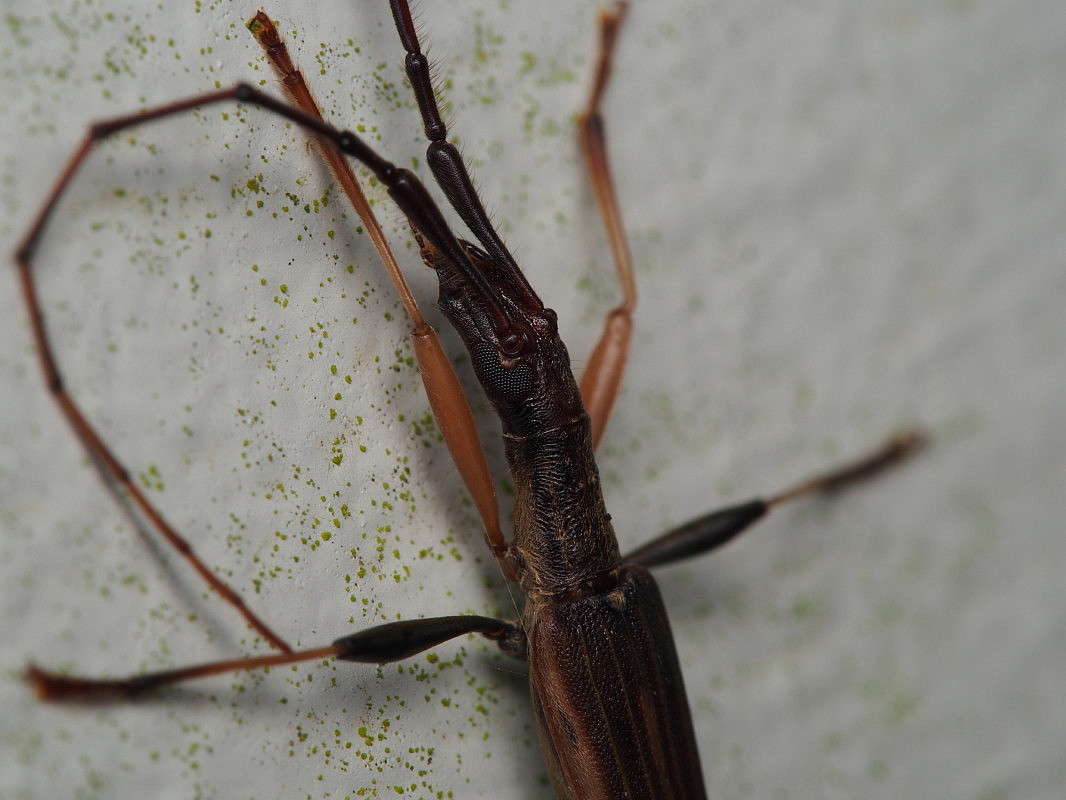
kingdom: Animalia
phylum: Arthropoda
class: Insecta
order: Coleoptera
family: Cerambycidae
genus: Stenopotes
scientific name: Stenopotes pallidus
